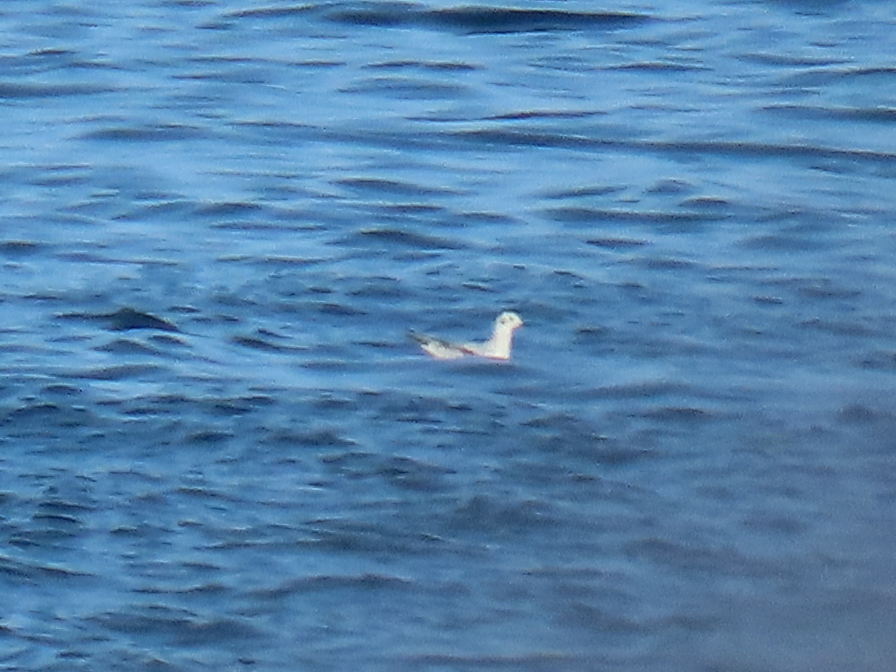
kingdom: Animalia
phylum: Chordata
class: Aves
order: Charadriiformes
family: Laridae
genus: Chroicocephalus
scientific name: Chroicocephalus philadelphia
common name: Bonaparte's gull
